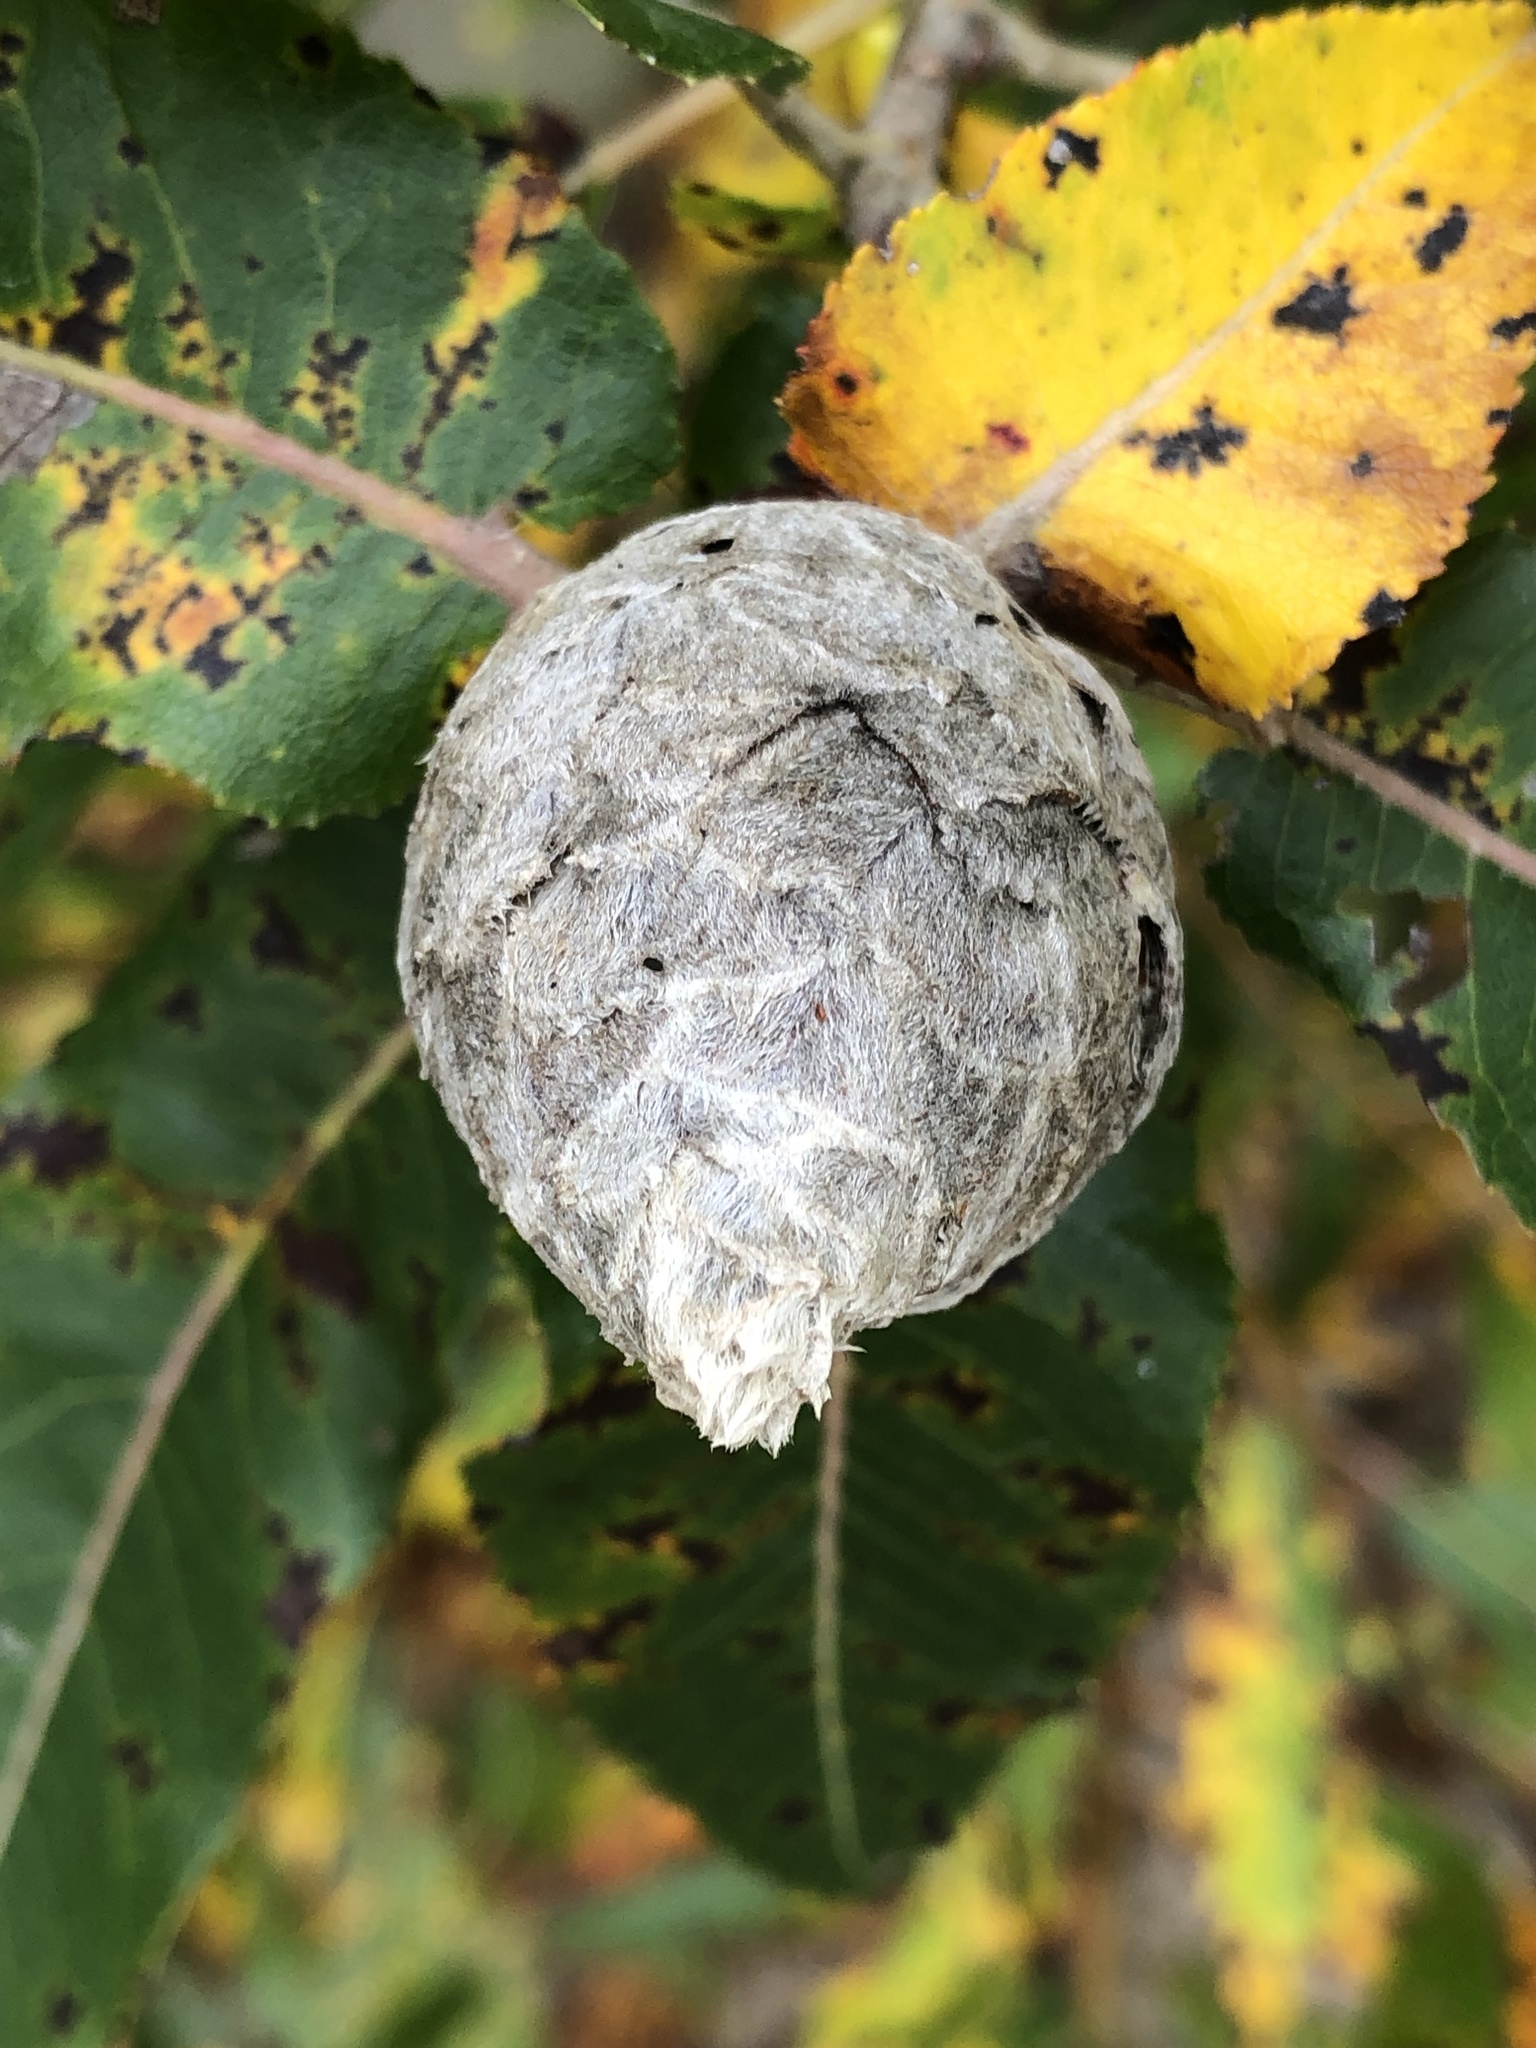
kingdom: Animalia
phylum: Arthropoda
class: Insecta
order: Diptera
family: Cecidomyiidae
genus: Rabdophaga
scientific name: Rabdophaga strobiloides
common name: Willow pinecone gall midge
